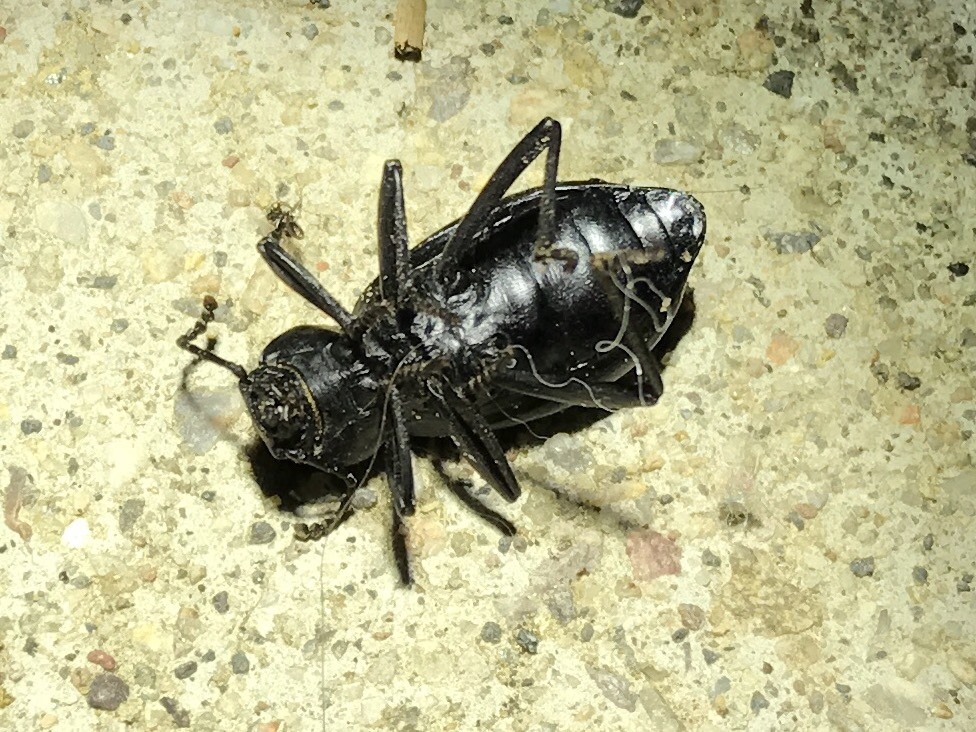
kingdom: Animalia
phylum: Arthropoda
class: Insecta
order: Coleoptera
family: Tenebrionidae
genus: Eleodes
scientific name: Eleodes wheeleri
